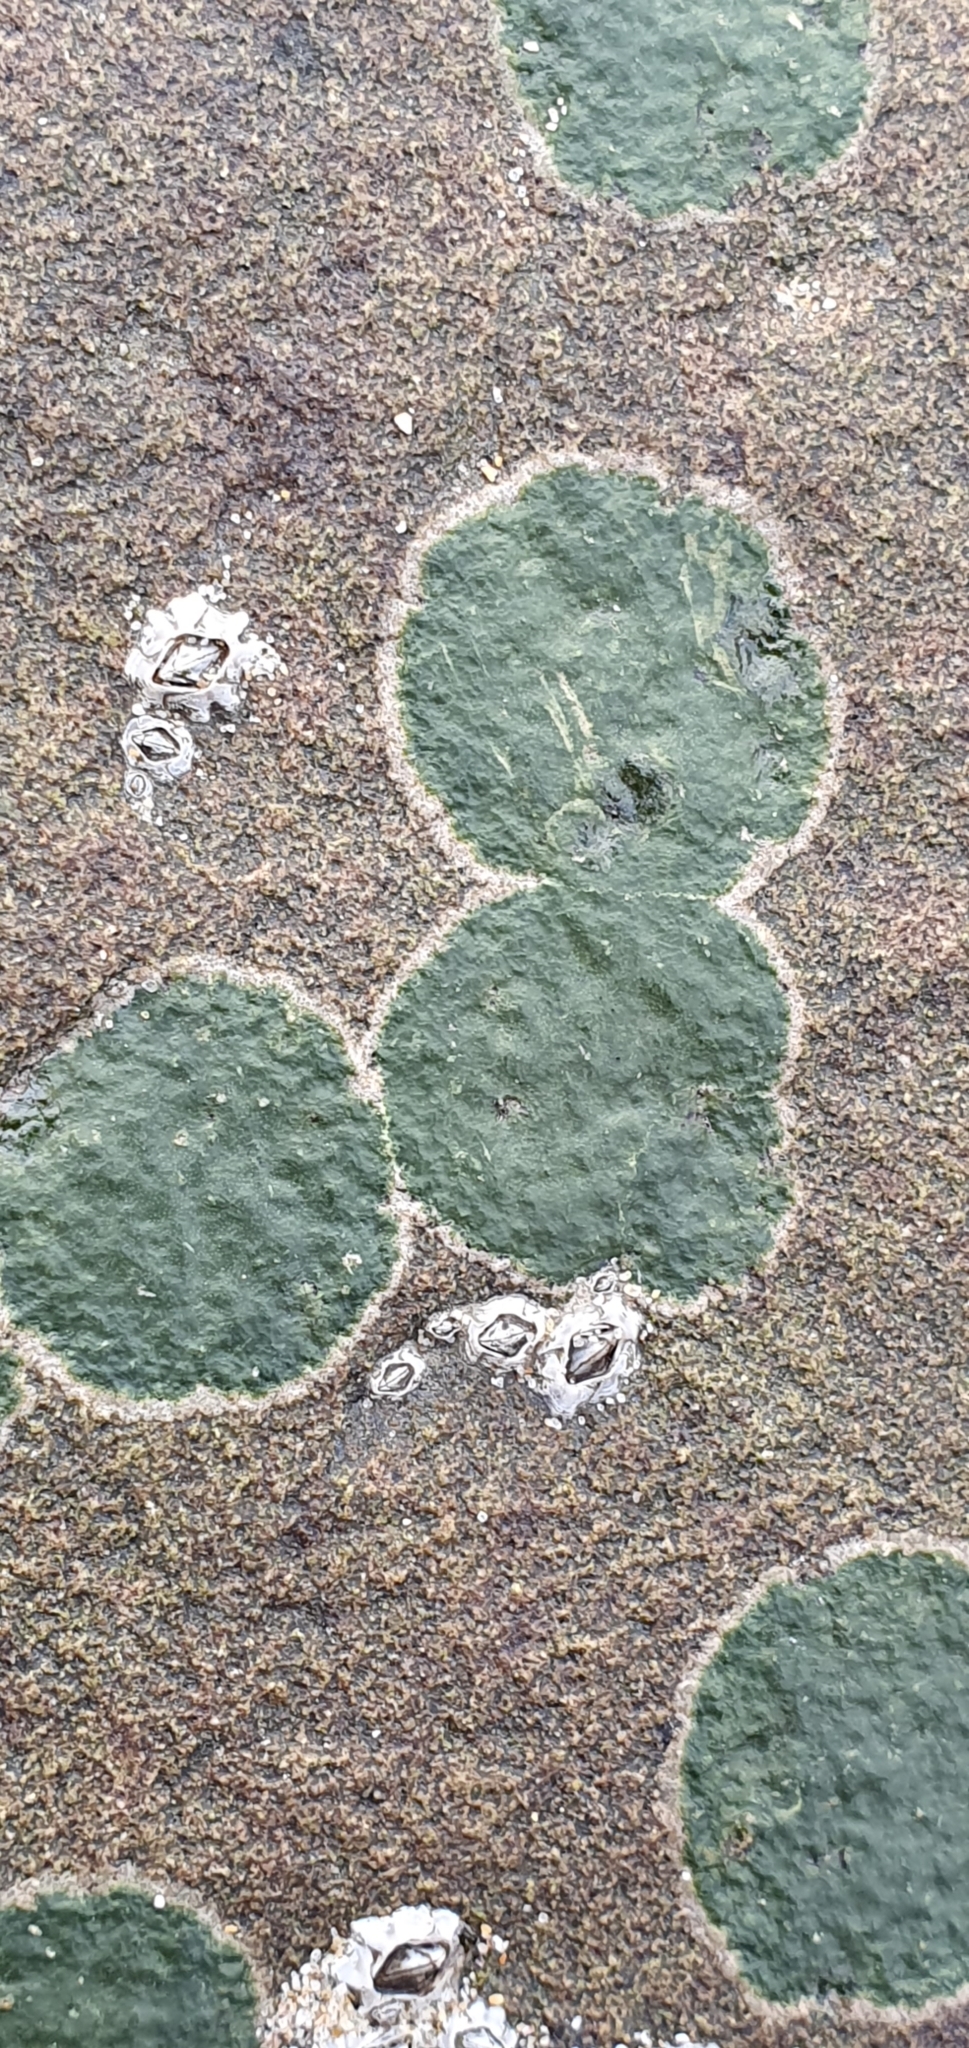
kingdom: Fungi
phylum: Ascomycota
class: Eurotiomycetes
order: Verrucariales
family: Verrucariaceae
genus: Wahlenbergiella
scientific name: Wahlenbergiella mucosa
